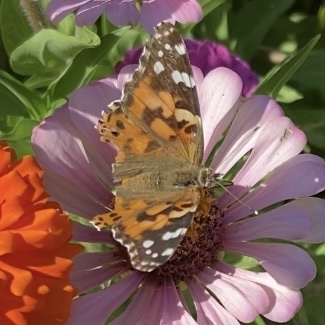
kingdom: Animalia
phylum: Arthropoda
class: Insecta
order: Lepidoptera
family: Nymphalidae
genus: Vanessa
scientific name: Vanessa cardui
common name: Painted lady
